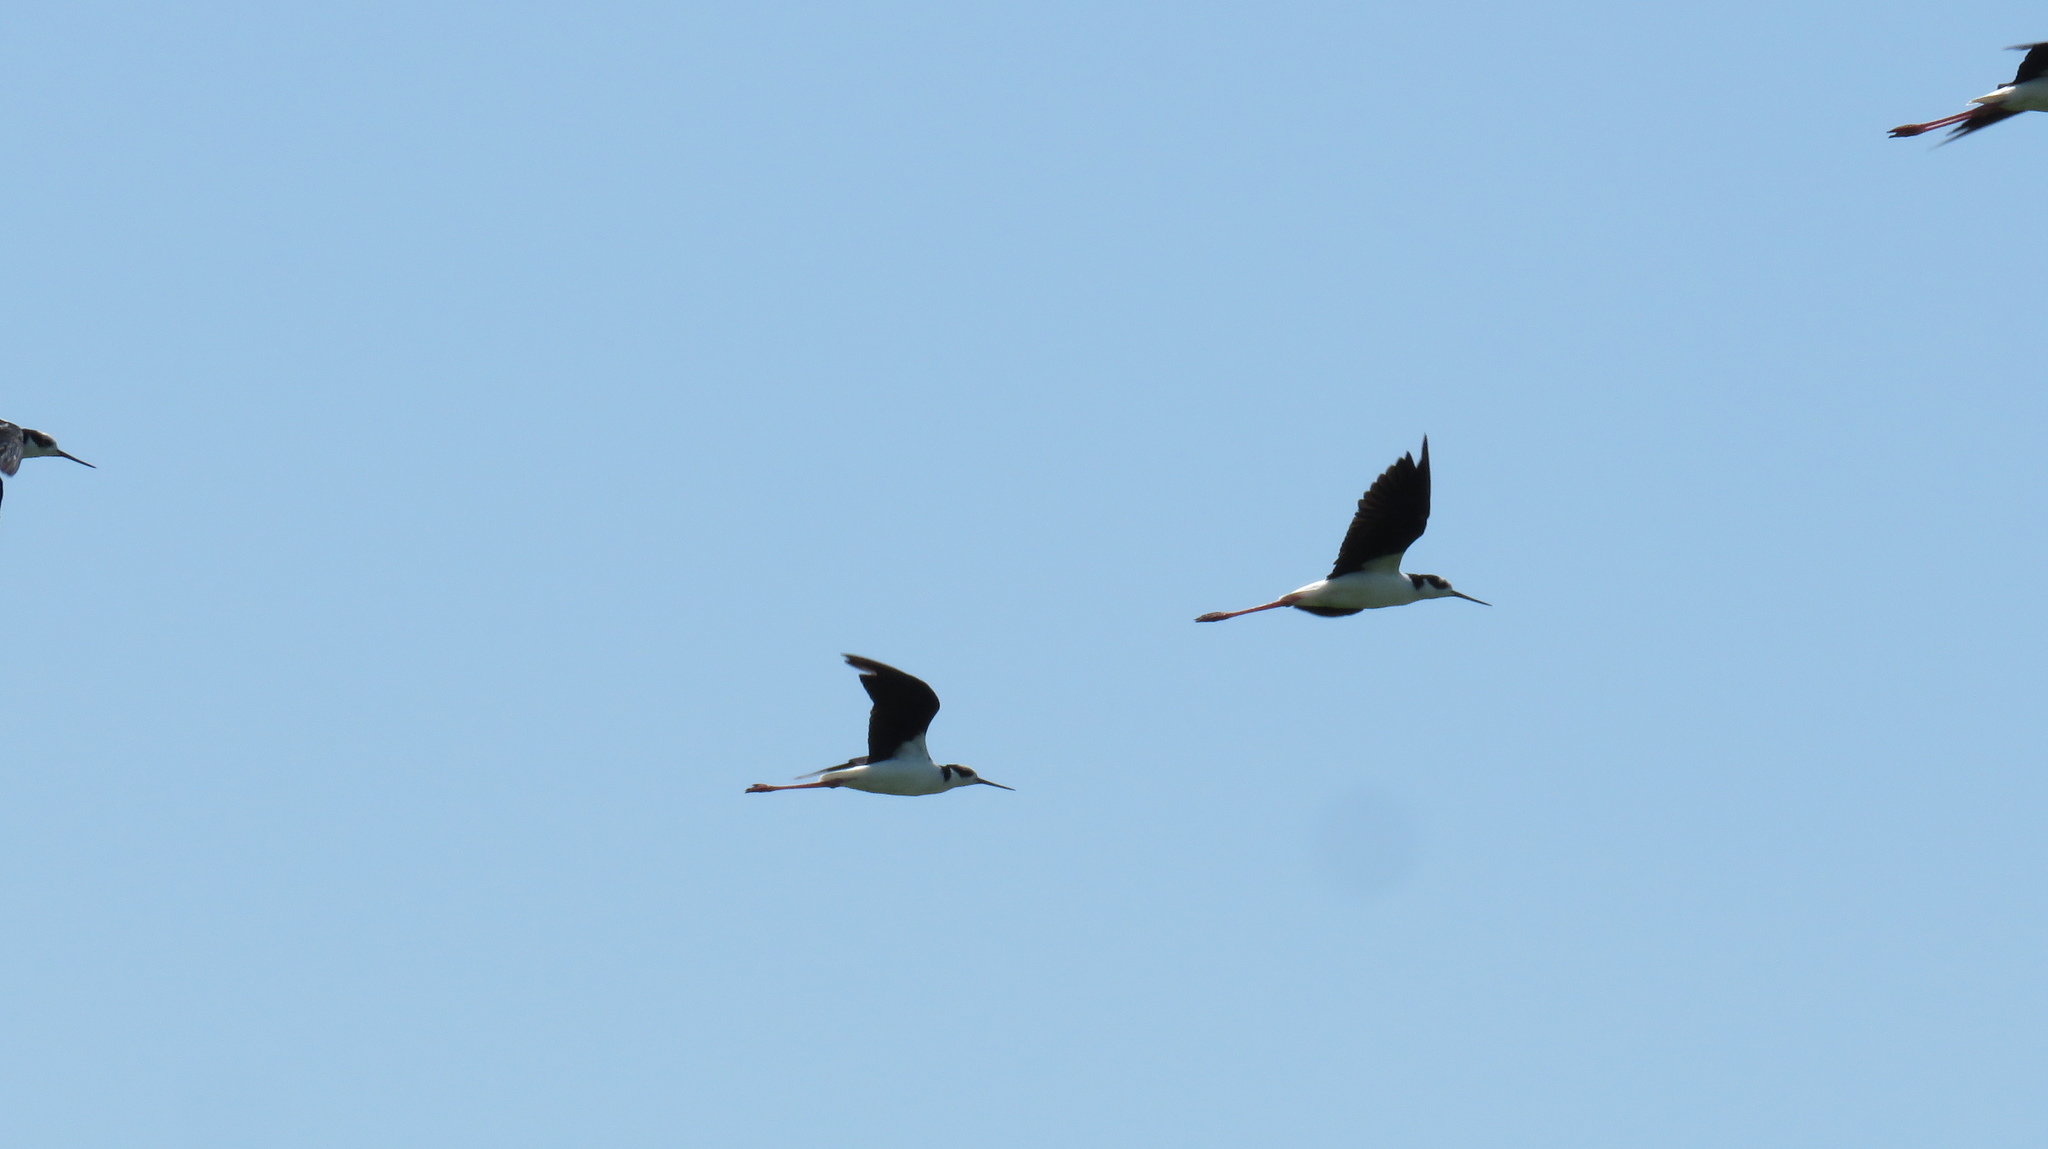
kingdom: Animalia
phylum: Chordata
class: Aves
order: Charadriiformes
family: Recurvirostridae
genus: Himantopus
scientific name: Himantopus mexicanus
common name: Black-necked stilt
